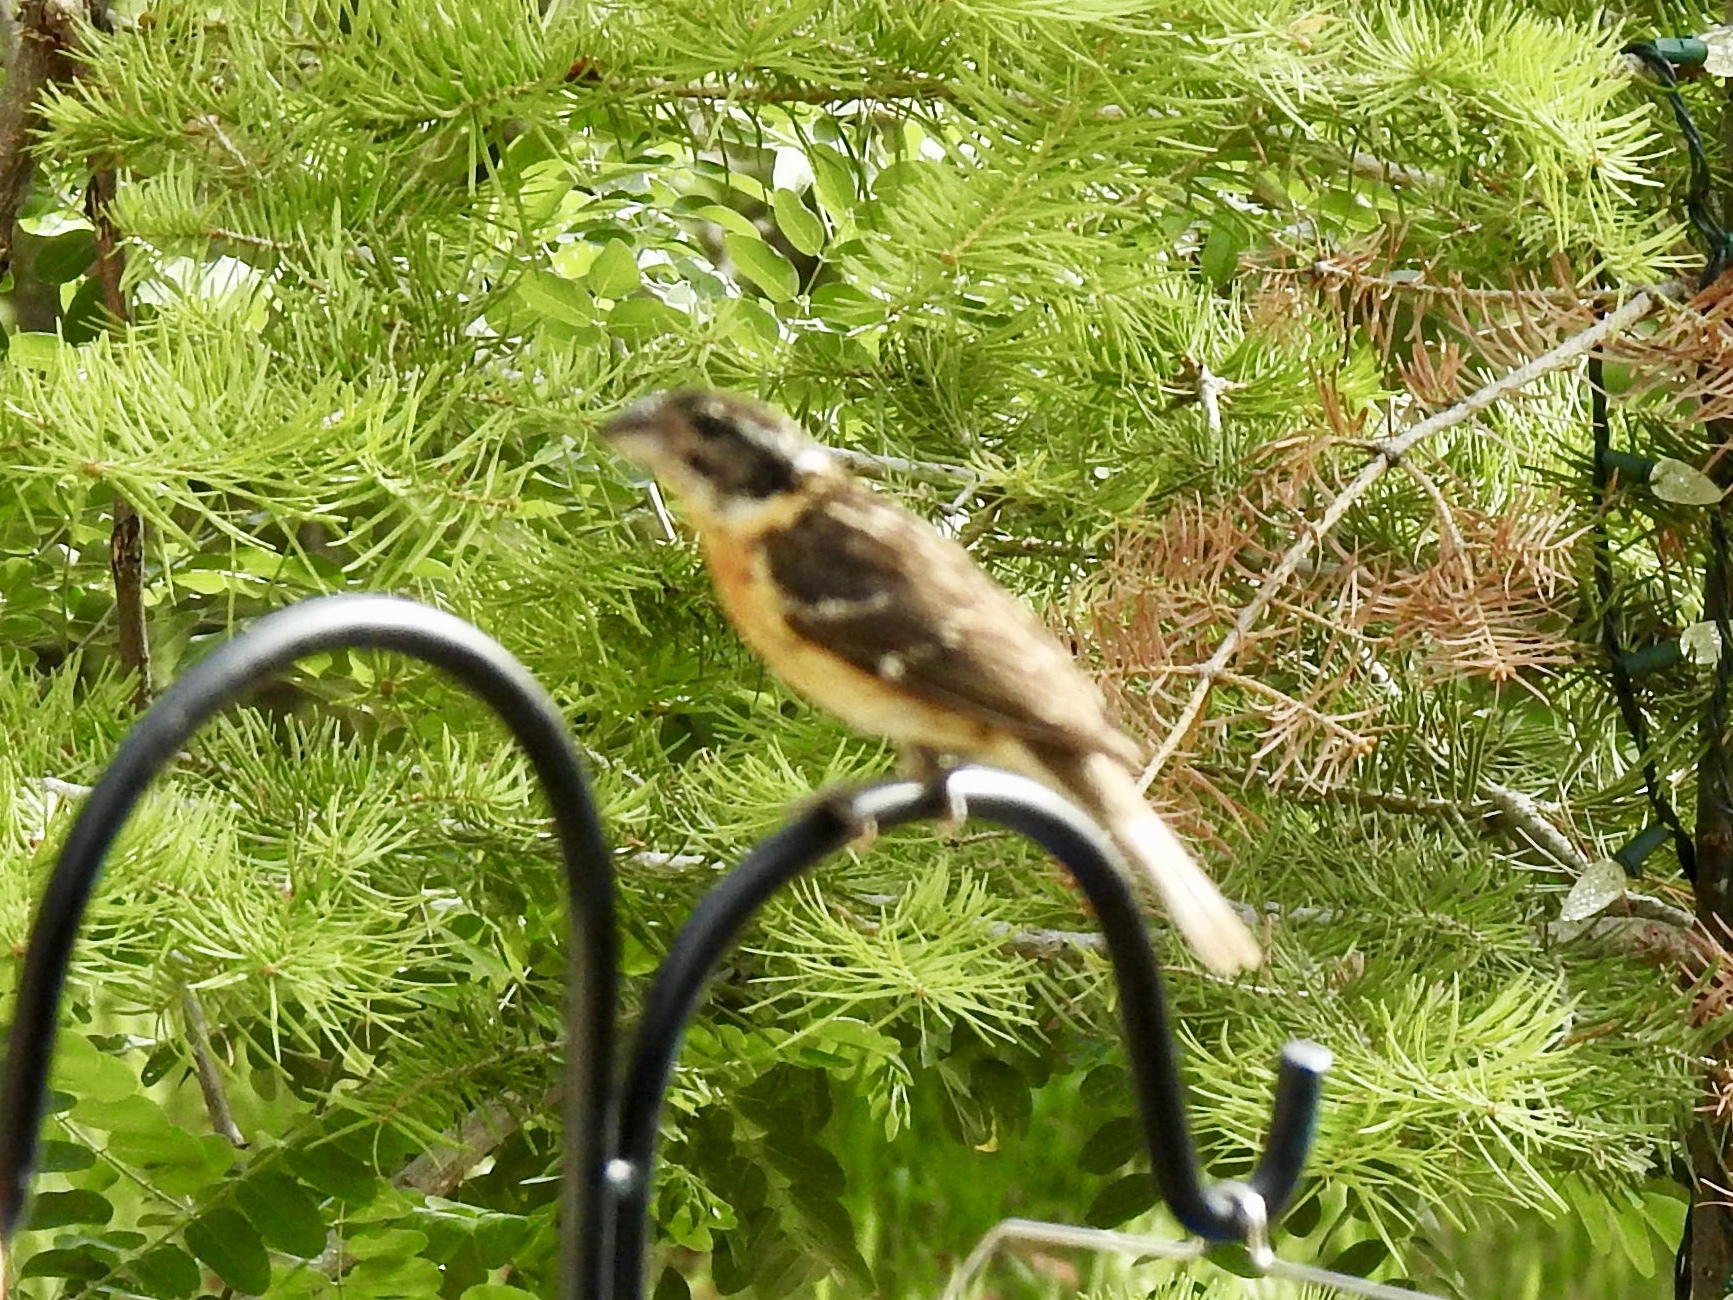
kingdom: Animalia
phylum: Chordata
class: Aves
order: Passeriformes
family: Cardinalidae
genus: Pheucticus
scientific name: Pheucticus melanocephalus
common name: Black-headed grosbeak
